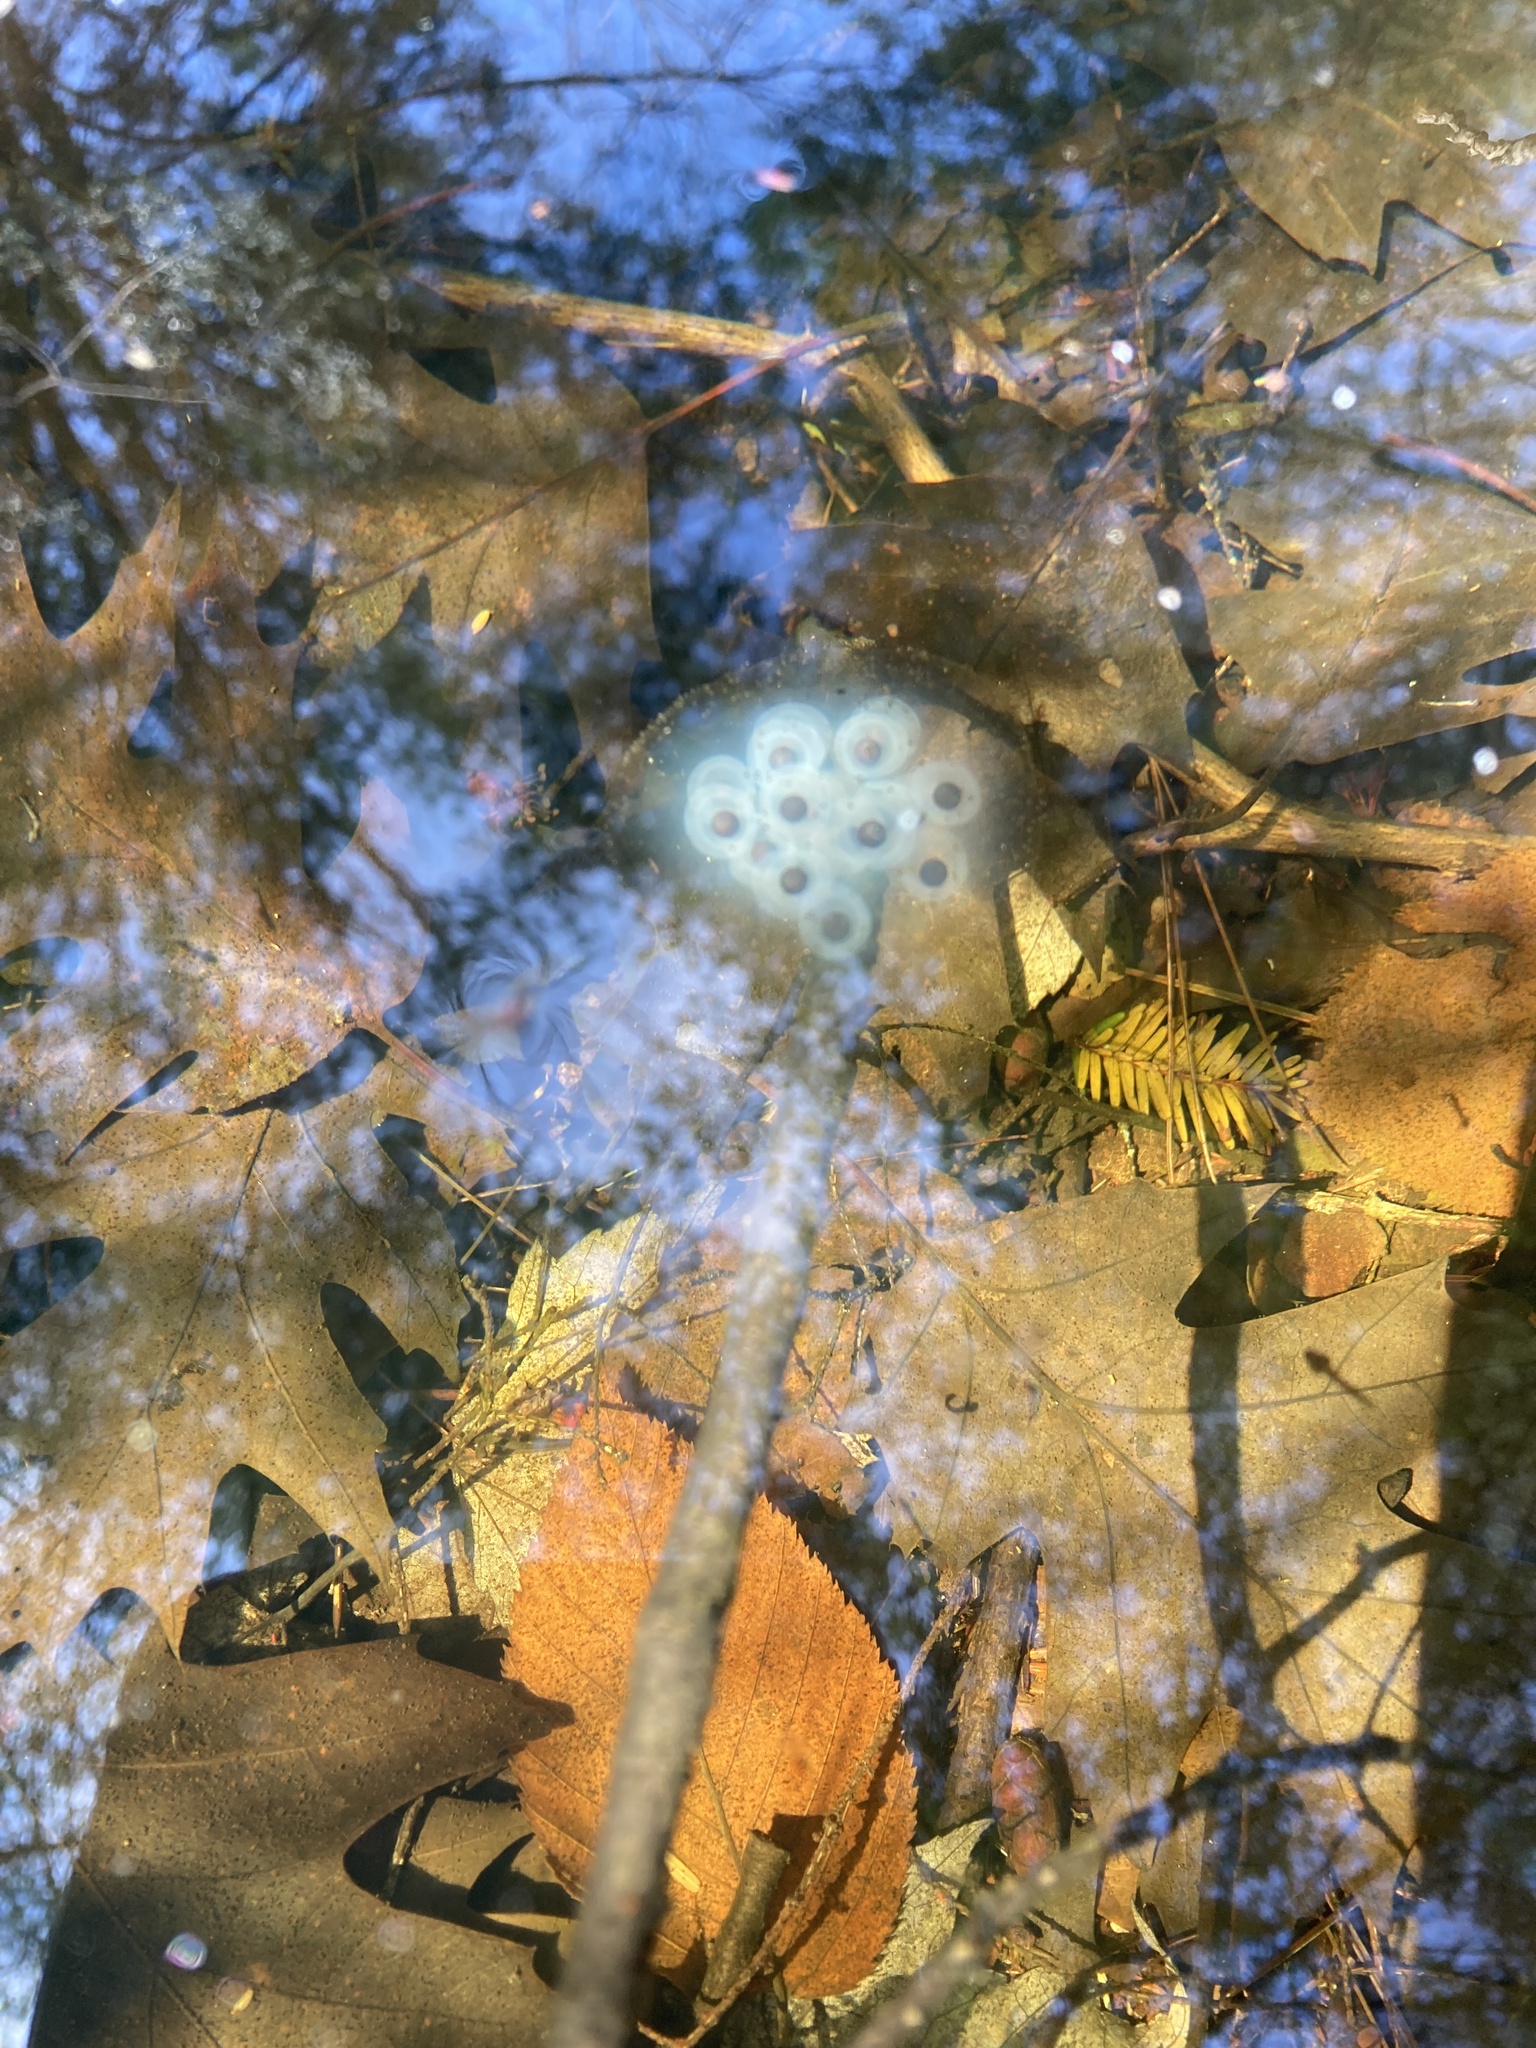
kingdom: Animalia
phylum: Chordata
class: Amphibia
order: Caudata
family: Ambystomatidae
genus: Ambystoma
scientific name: Ambystoma maculatum
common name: Spotted salamander
